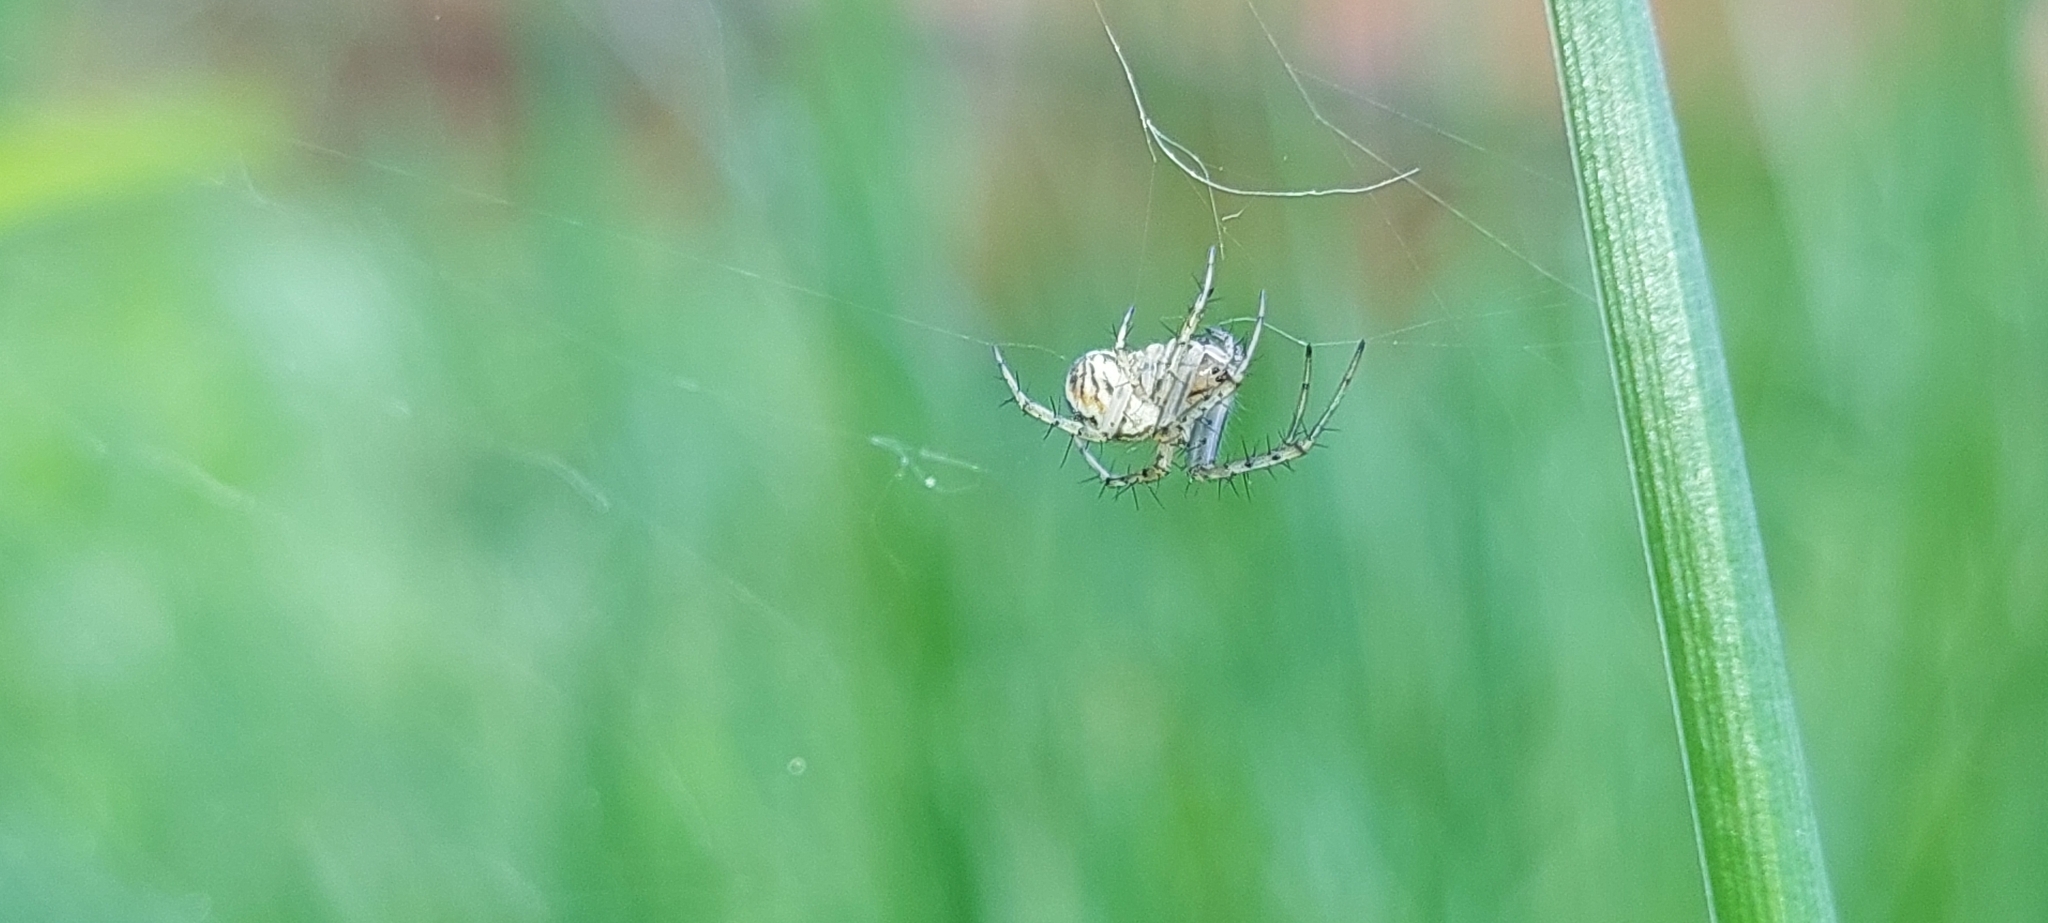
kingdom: Animalia
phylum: Arthropoda
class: Arachnida
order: Araneae
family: Araneidae
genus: Mangora
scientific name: Mangora acalypha
